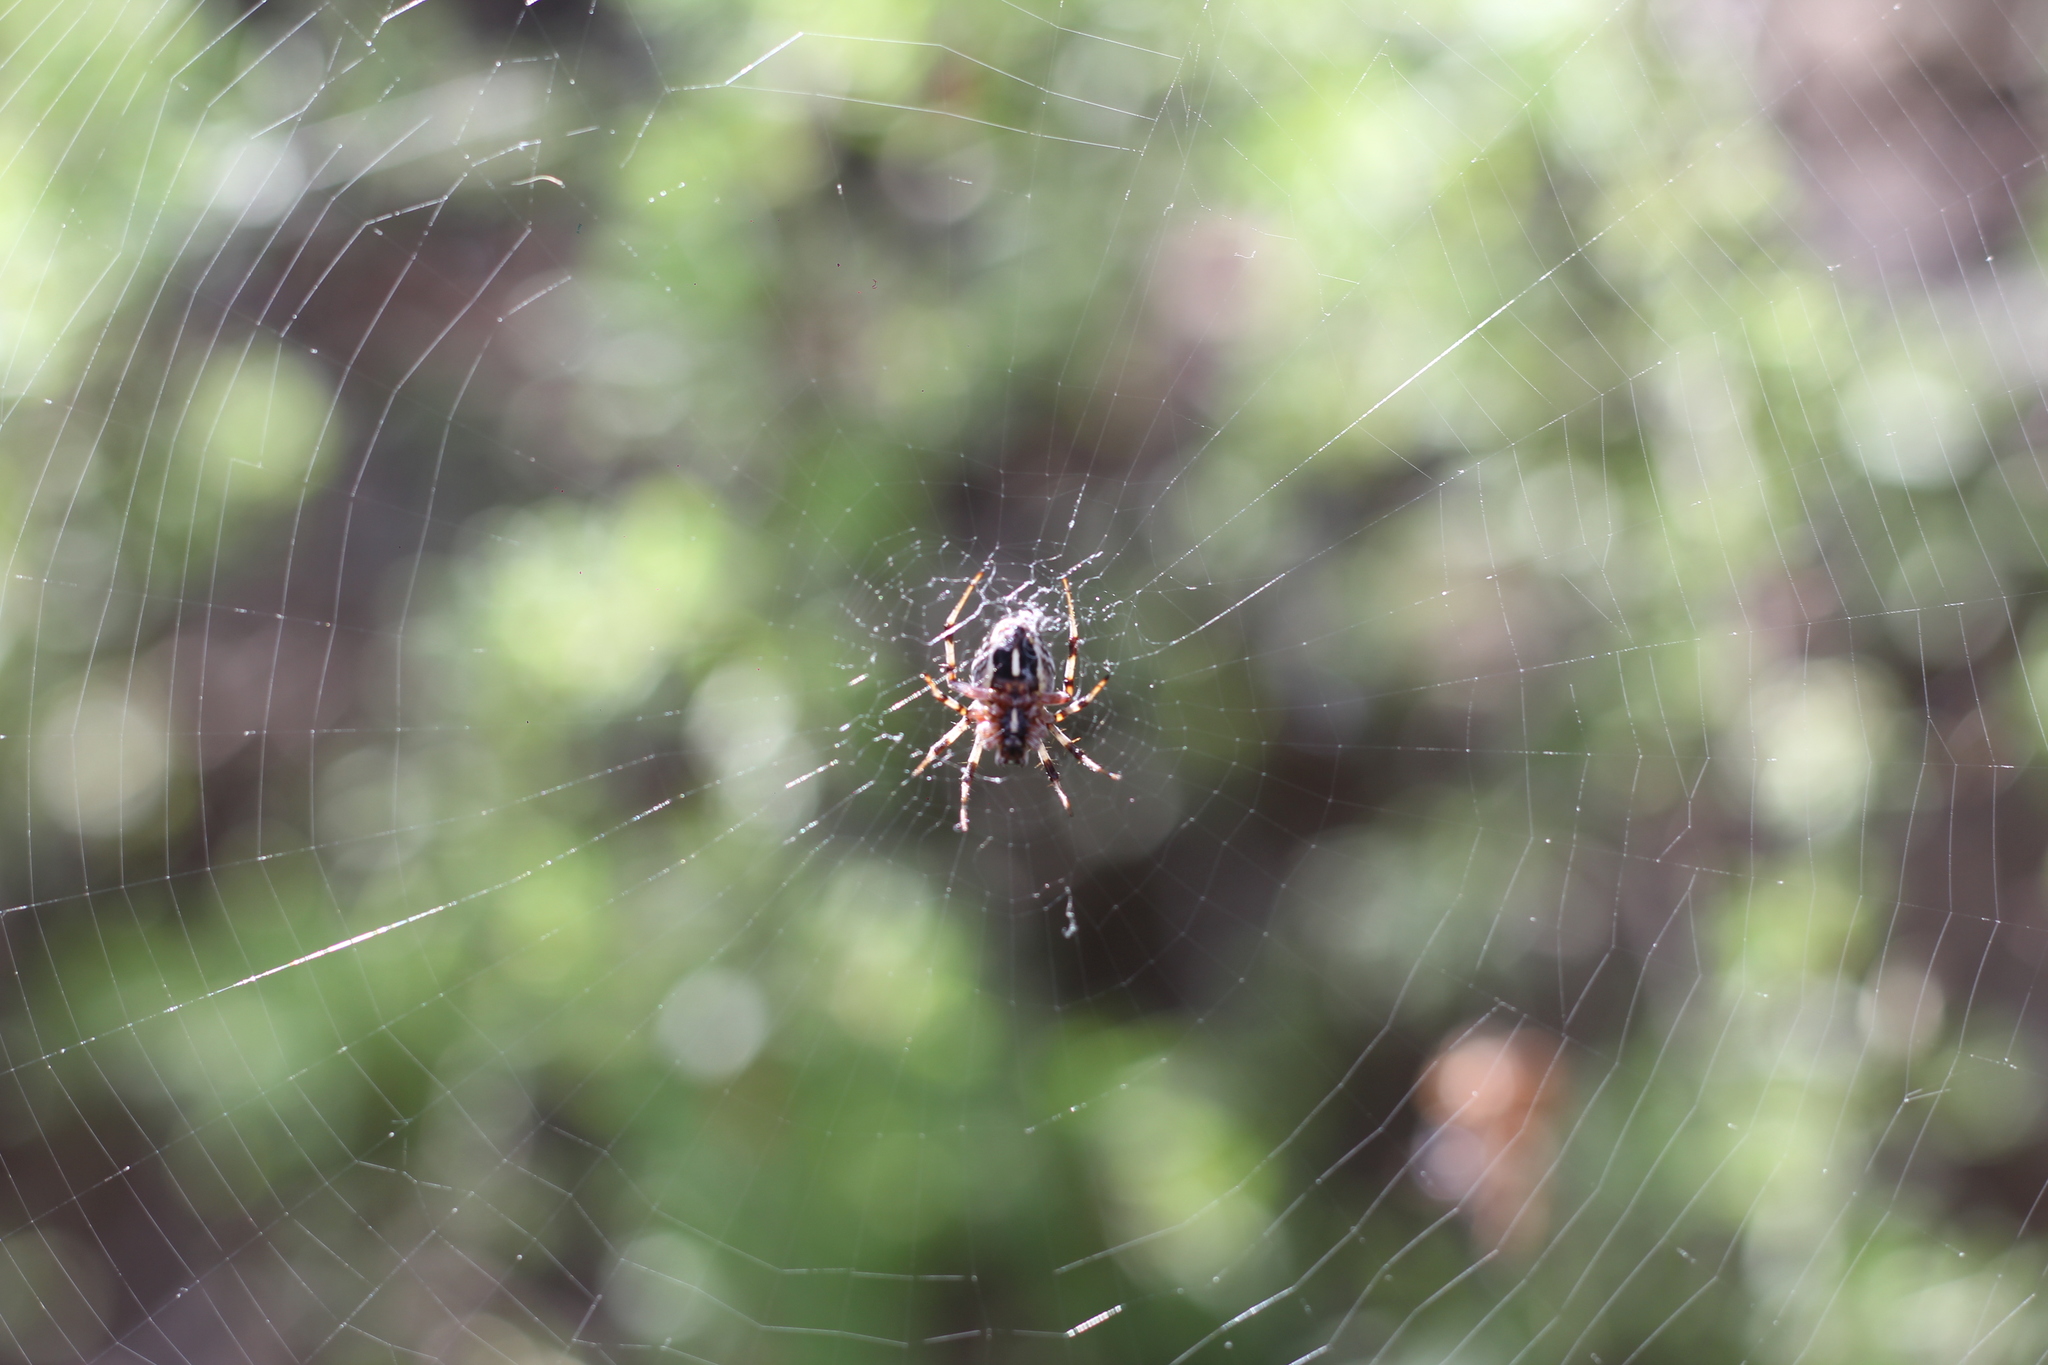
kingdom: Animalia
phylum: Arthropoda
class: Arachnida
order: Araneae
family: Araneidae
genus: Metepeira
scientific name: Metepeira
